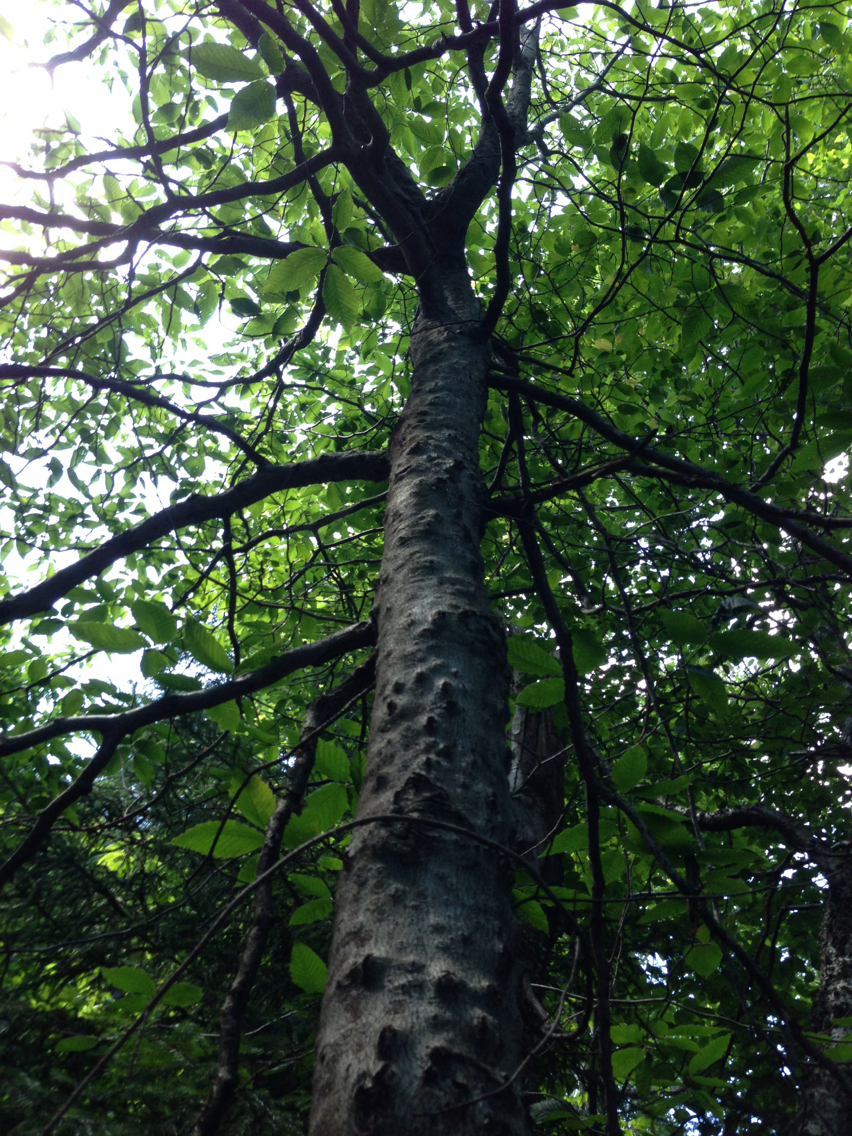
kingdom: Plantae
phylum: Tracheophyta
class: Magnoliopsida
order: Fagales
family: Fagaceae
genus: Fagus
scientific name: Fagus grandifolia
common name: American beech
